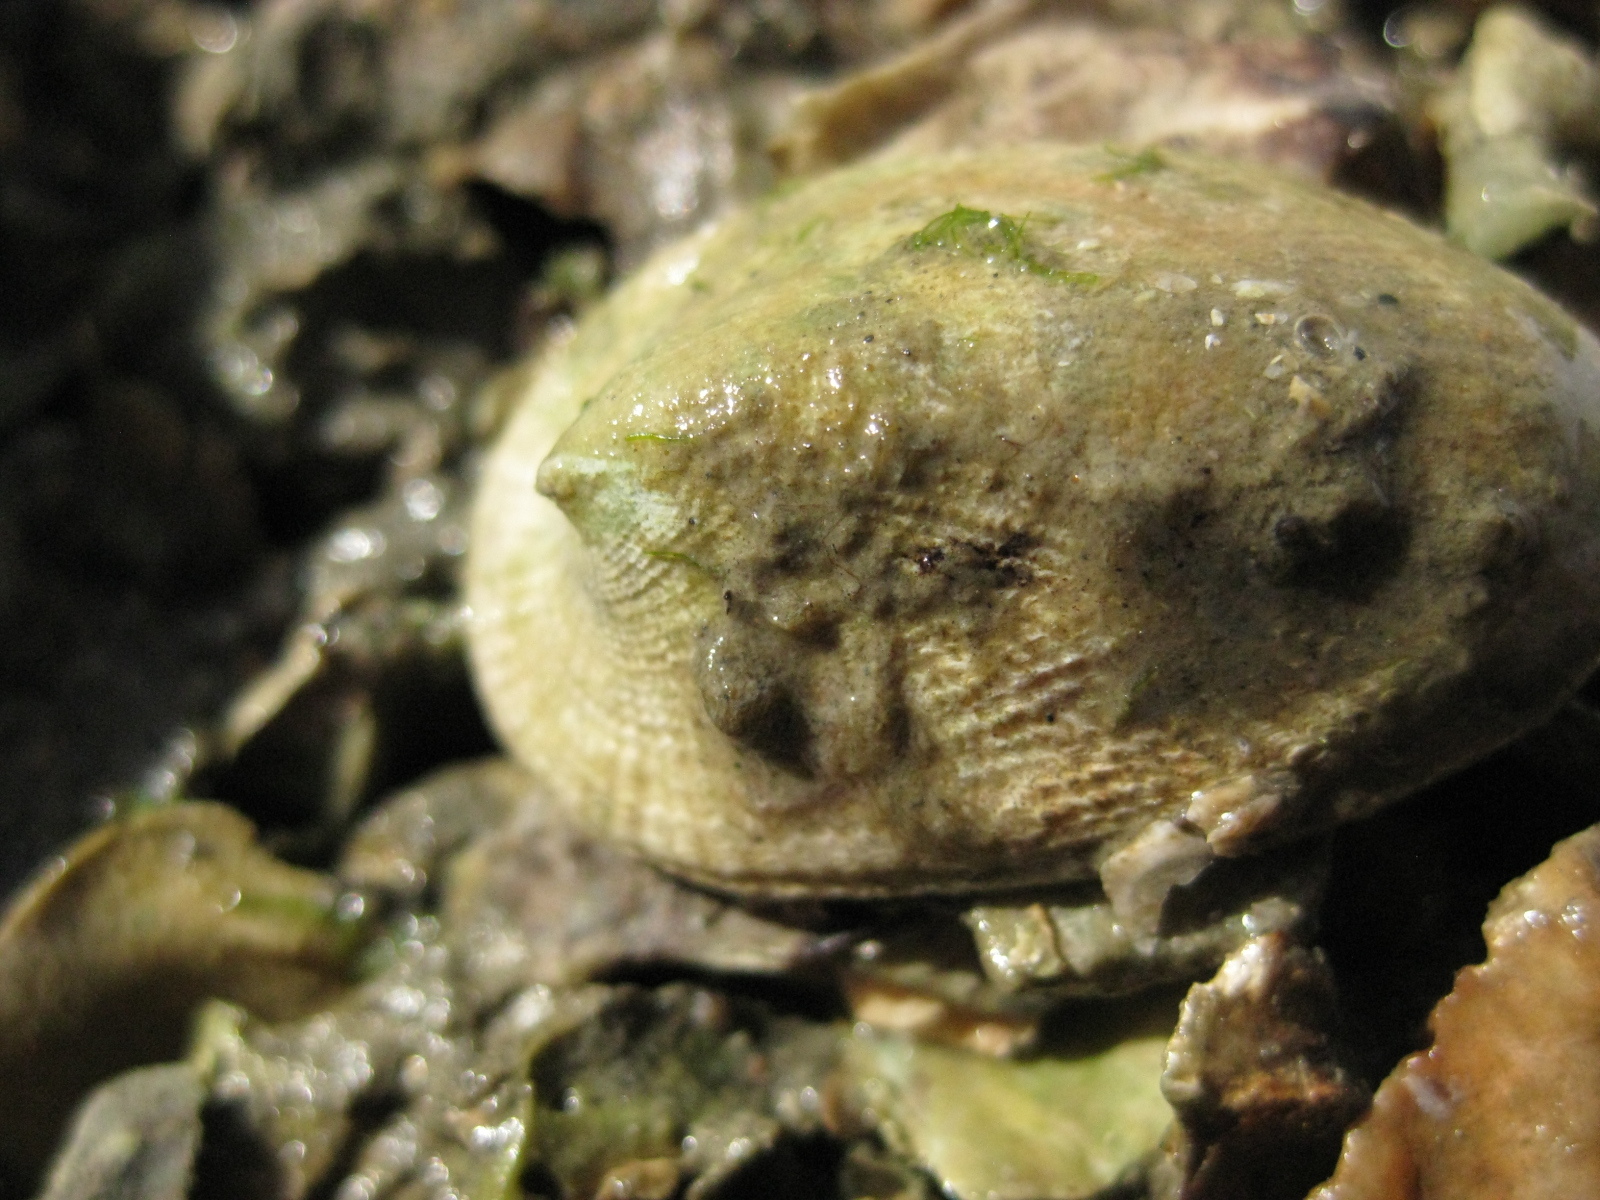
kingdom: Animalia
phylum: Mollusca
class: Gastropoda
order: Lepetellida
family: Fissurellidae
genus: Tugali
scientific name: Tugali elegans
